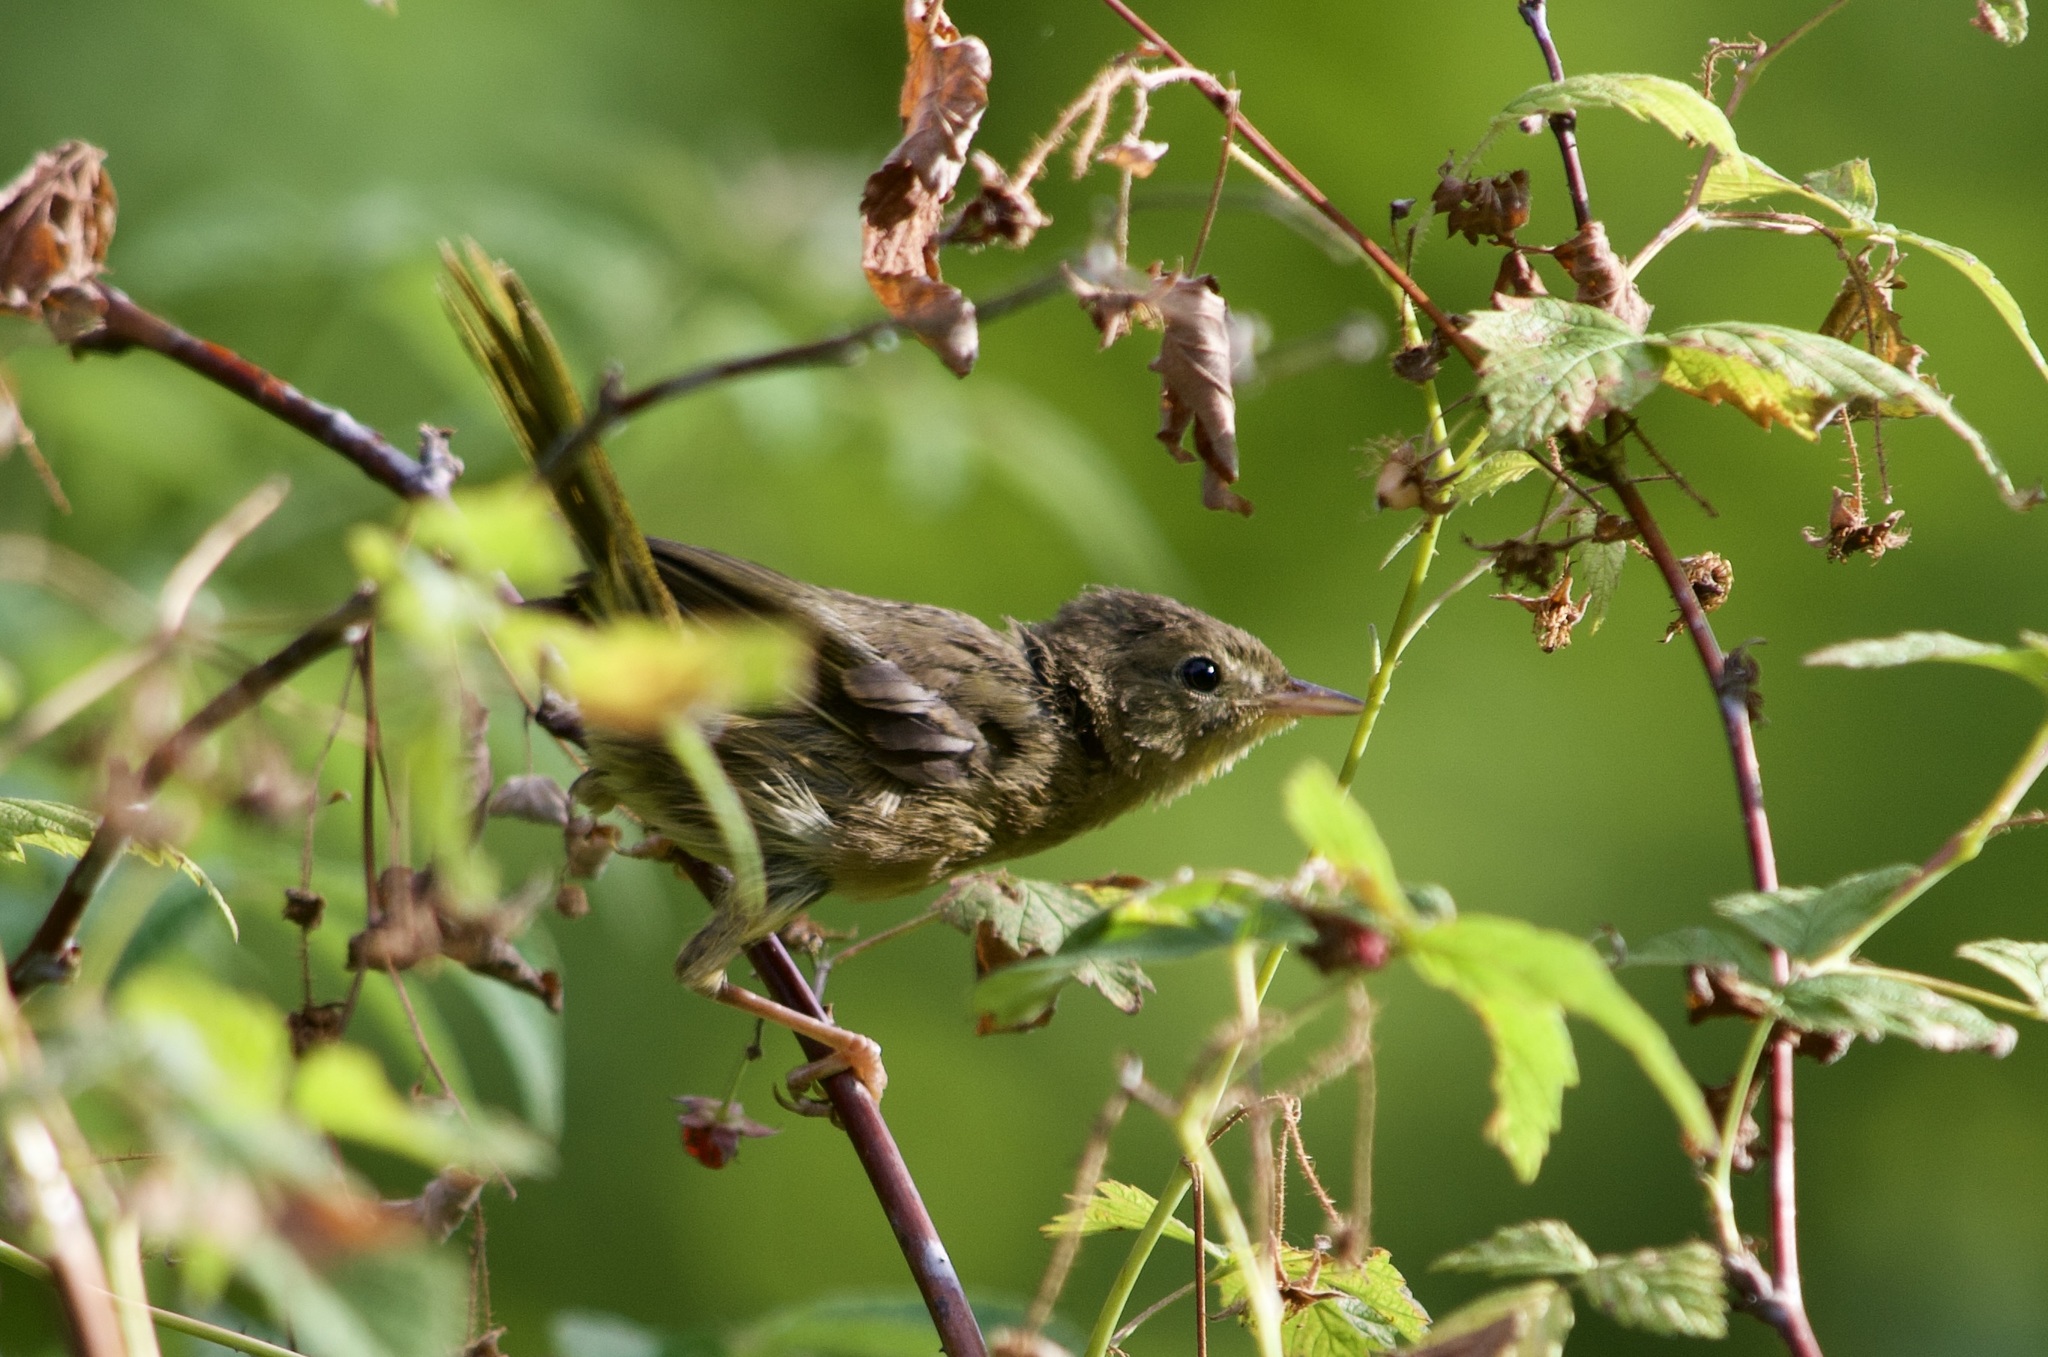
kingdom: Animalia
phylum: Chordata
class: Aves
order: Passeriformes
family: Parulidae
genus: Geothlypis
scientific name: Geothlypis trichas
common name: Common yellowthroat
